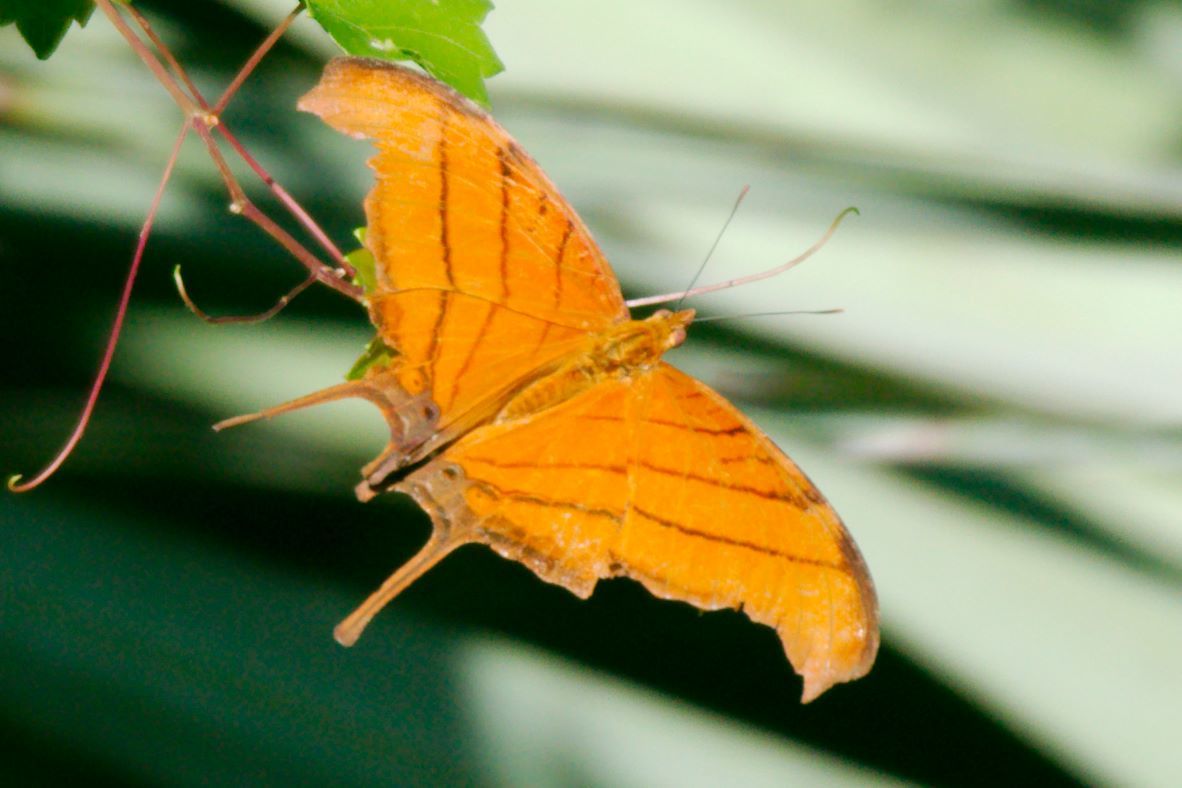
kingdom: Animalia
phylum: Arthropoda
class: Insecta
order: Lepidoptera
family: Nymphalidae
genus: Marpesia
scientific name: Marpesia petreus
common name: Red dagger wing
